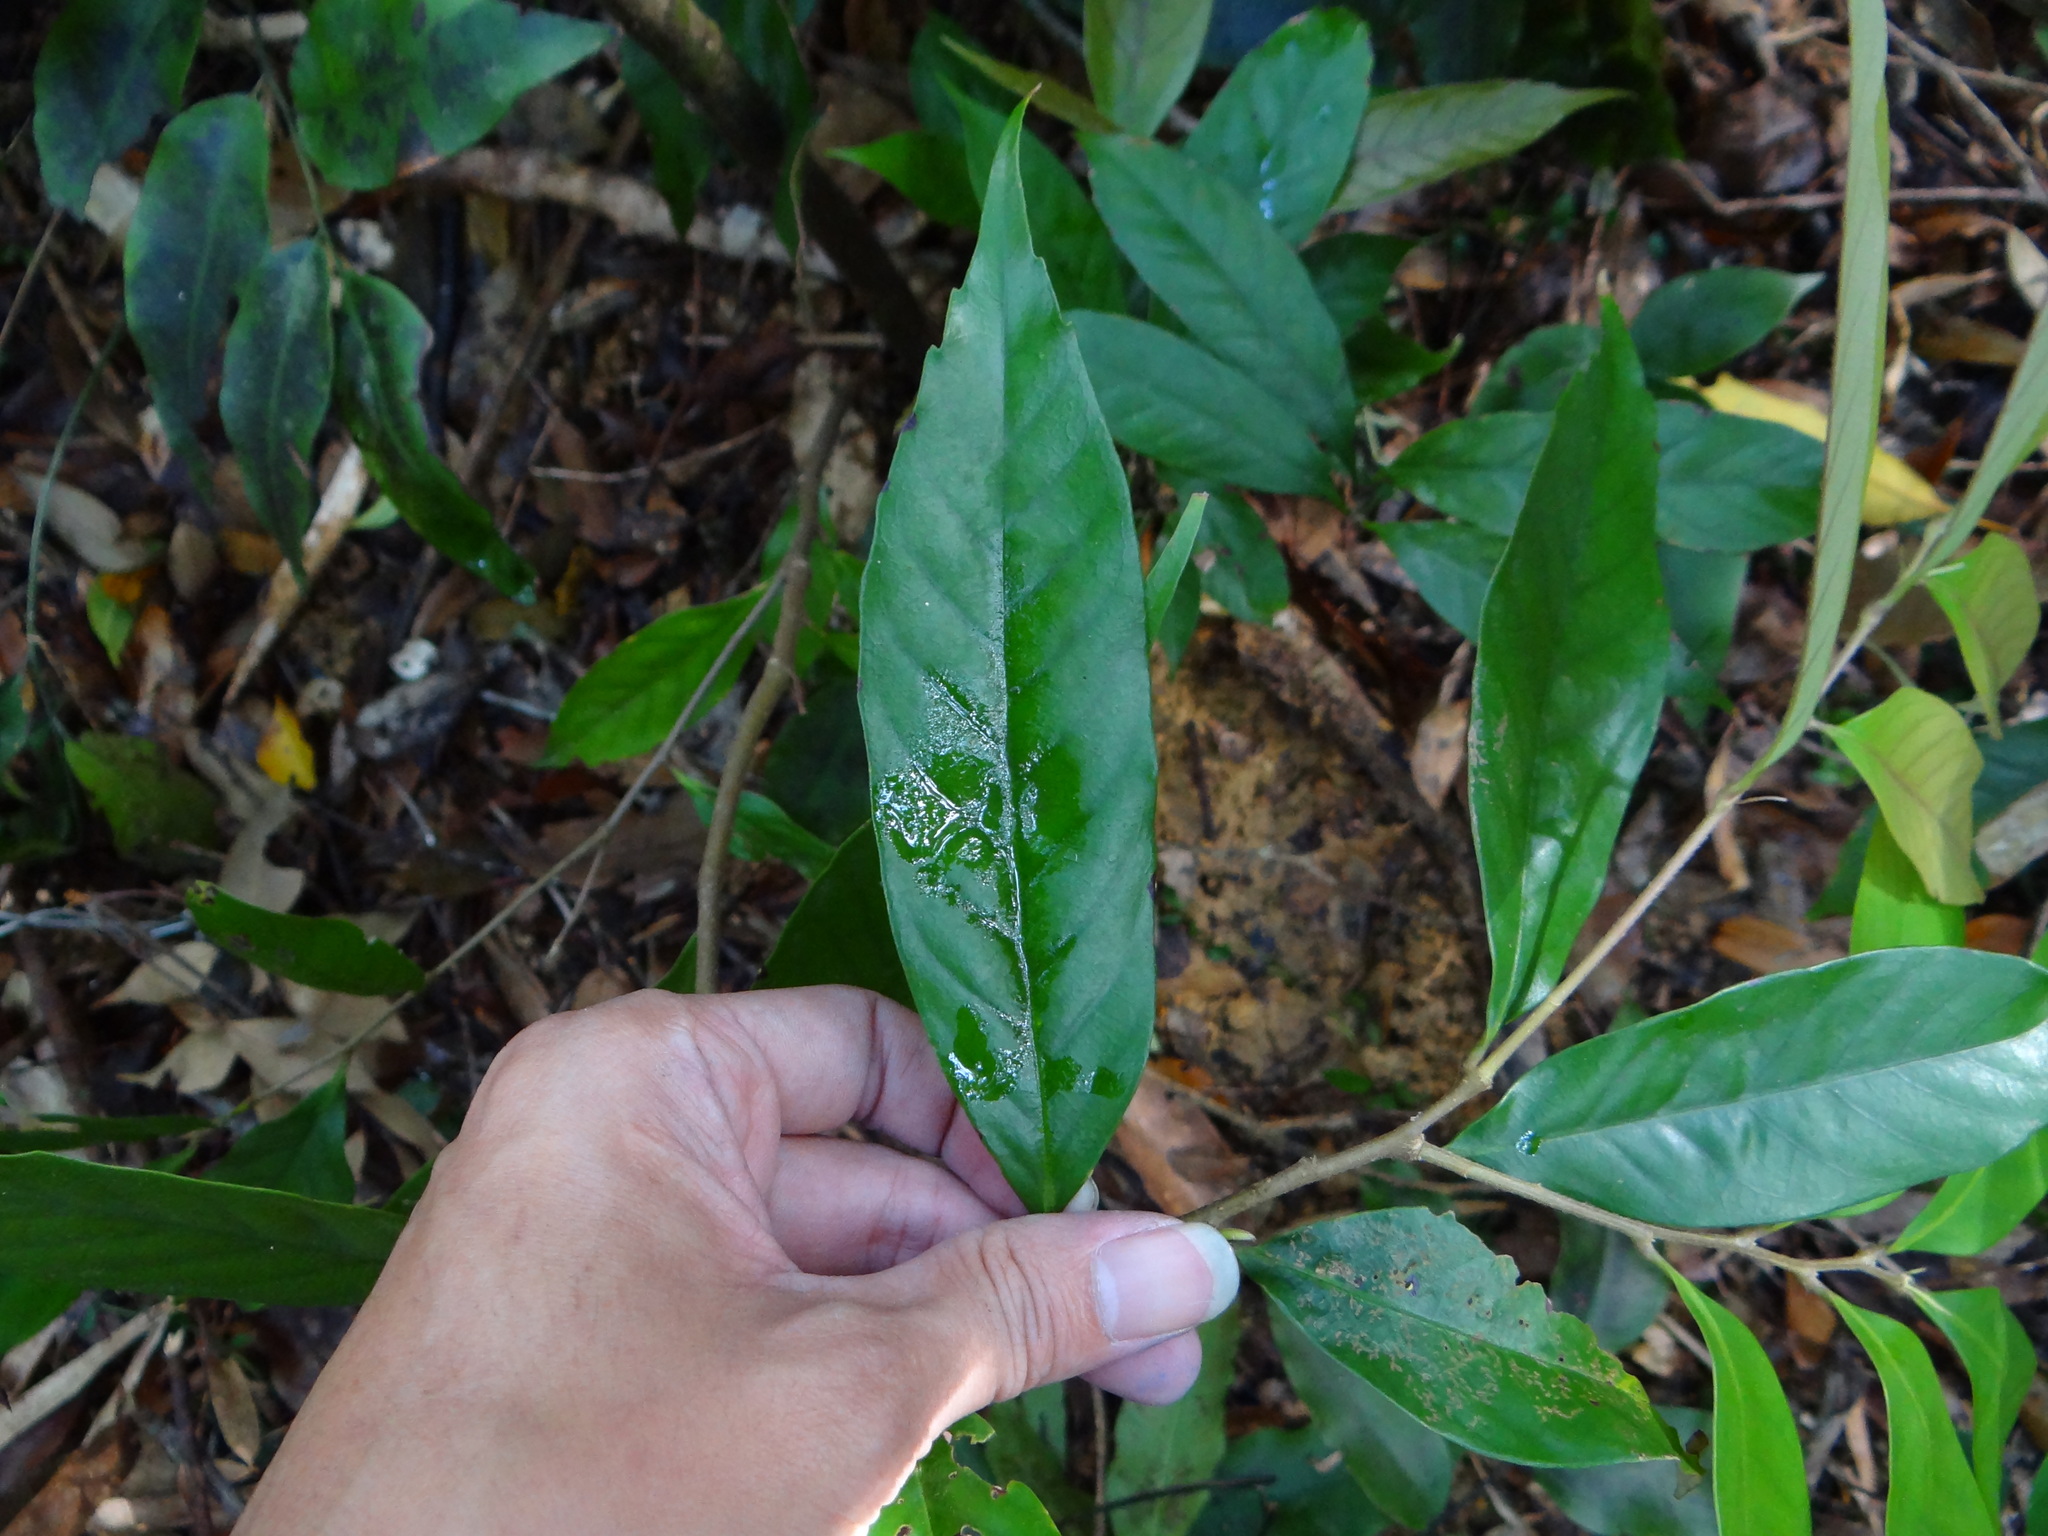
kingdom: Plantae
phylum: Tracheophyta
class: Magnoliopsida
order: Fagales
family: Fagaceae
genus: Castanopsis
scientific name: Castanopsis faberi
